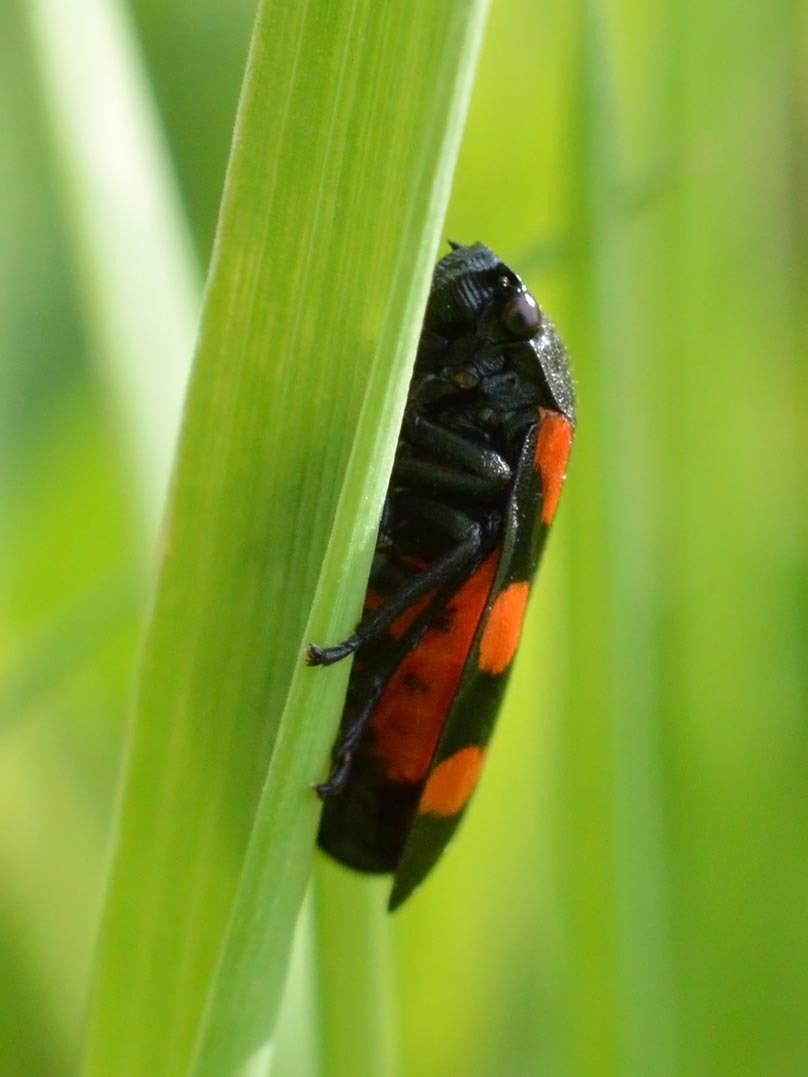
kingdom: Animalia
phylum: Arthropoda
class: Insecta
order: Hemiptera
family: Cercopidae
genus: Cercopis
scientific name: Cercopis sanguinolenta
